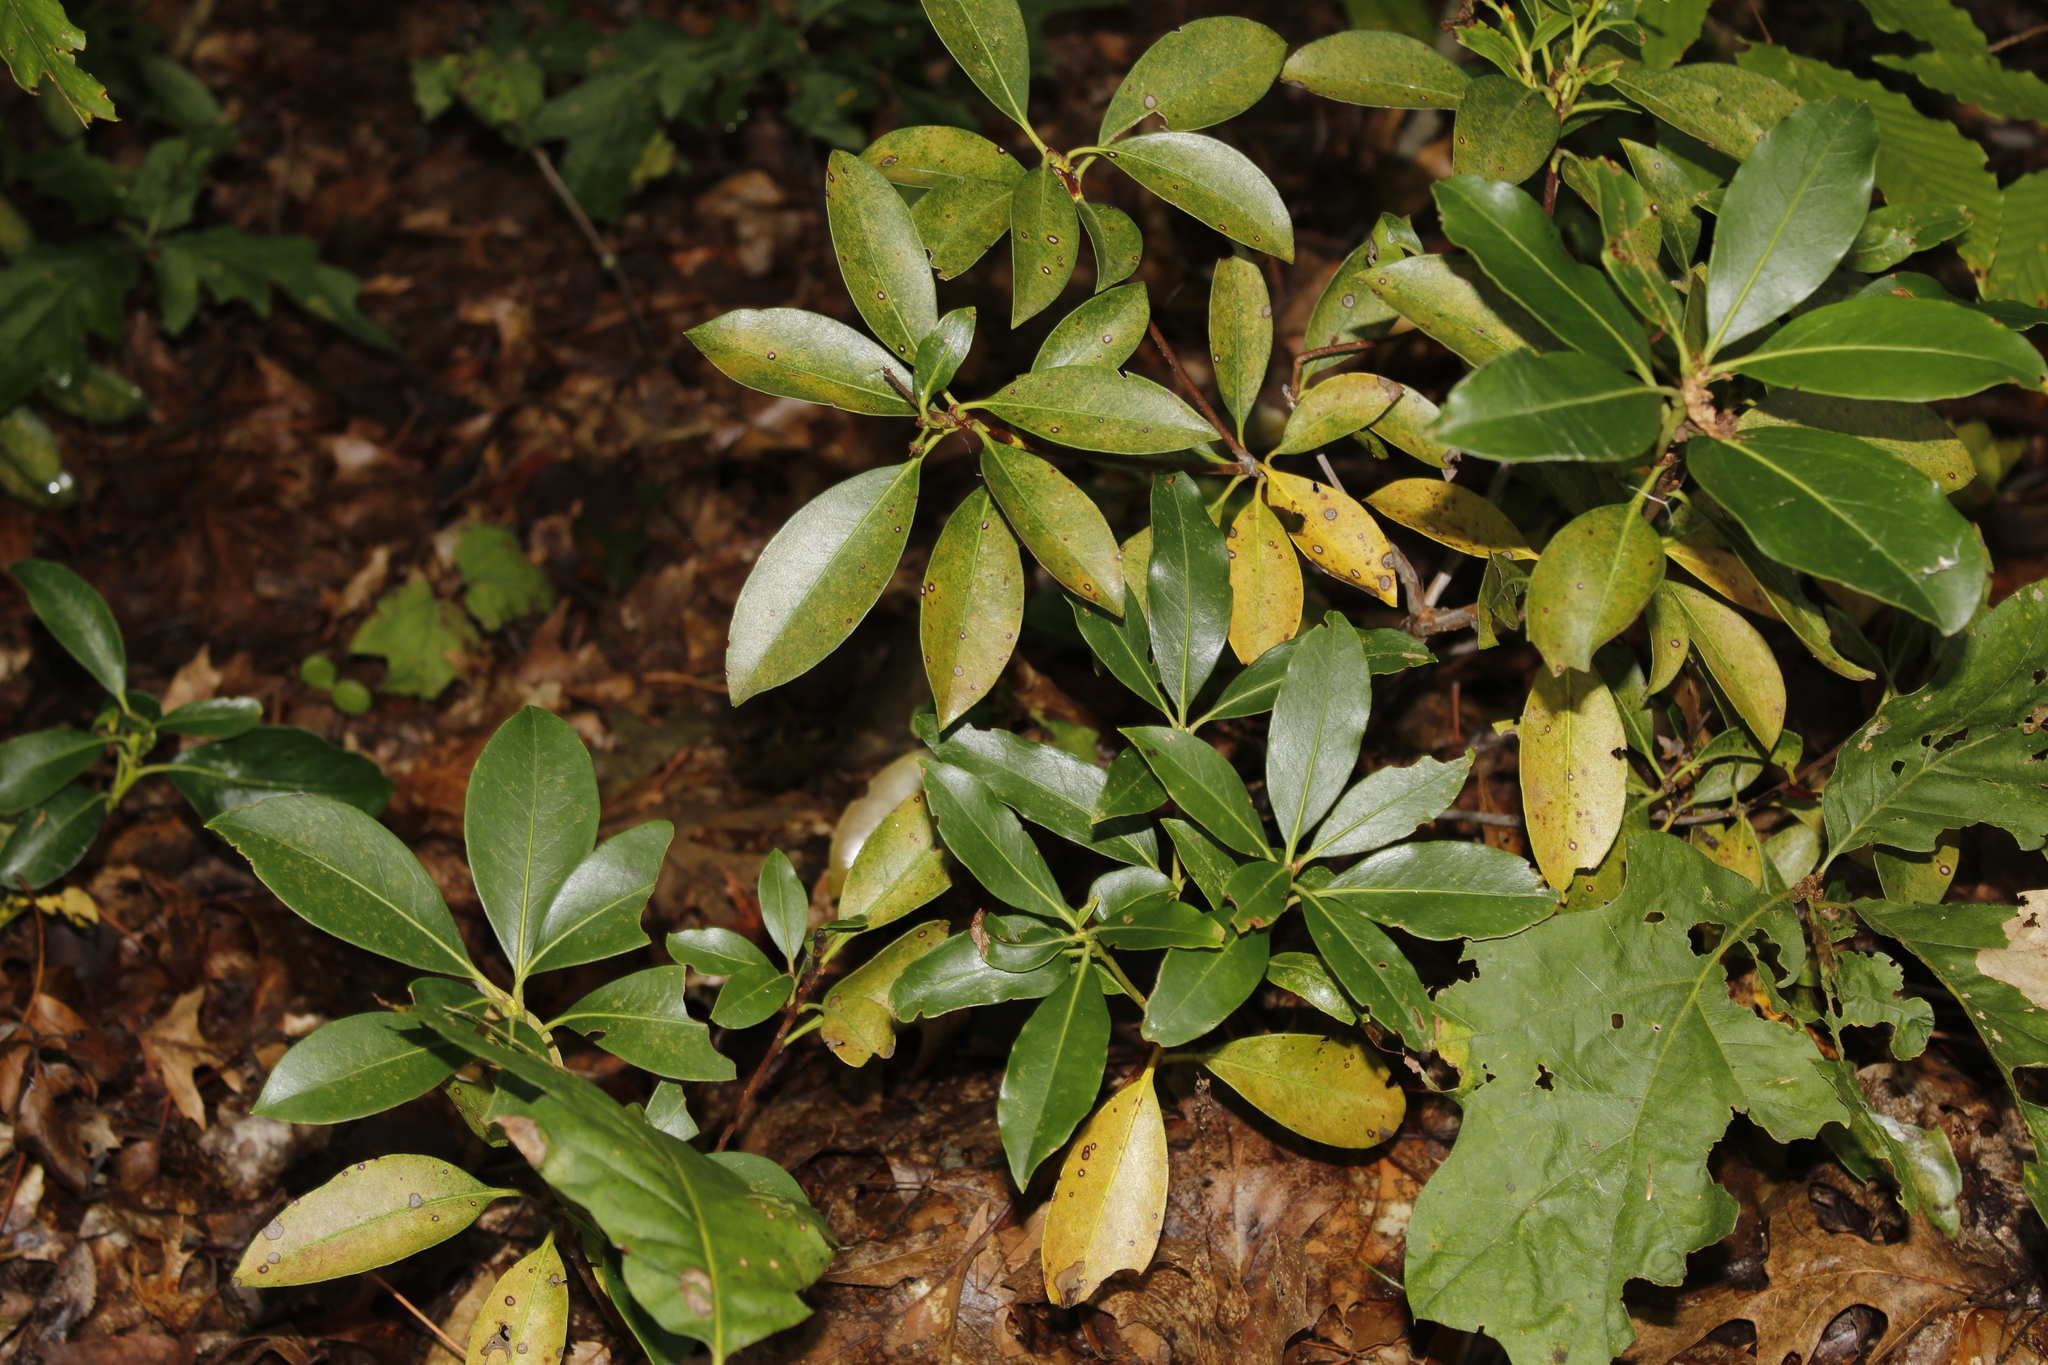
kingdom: Plantae
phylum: Tracheophyta
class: Magnoliopsida
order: Ericales
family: Ericaceae
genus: Kalmia
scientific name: Kalmia latifolia
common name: Mountain-laurel
